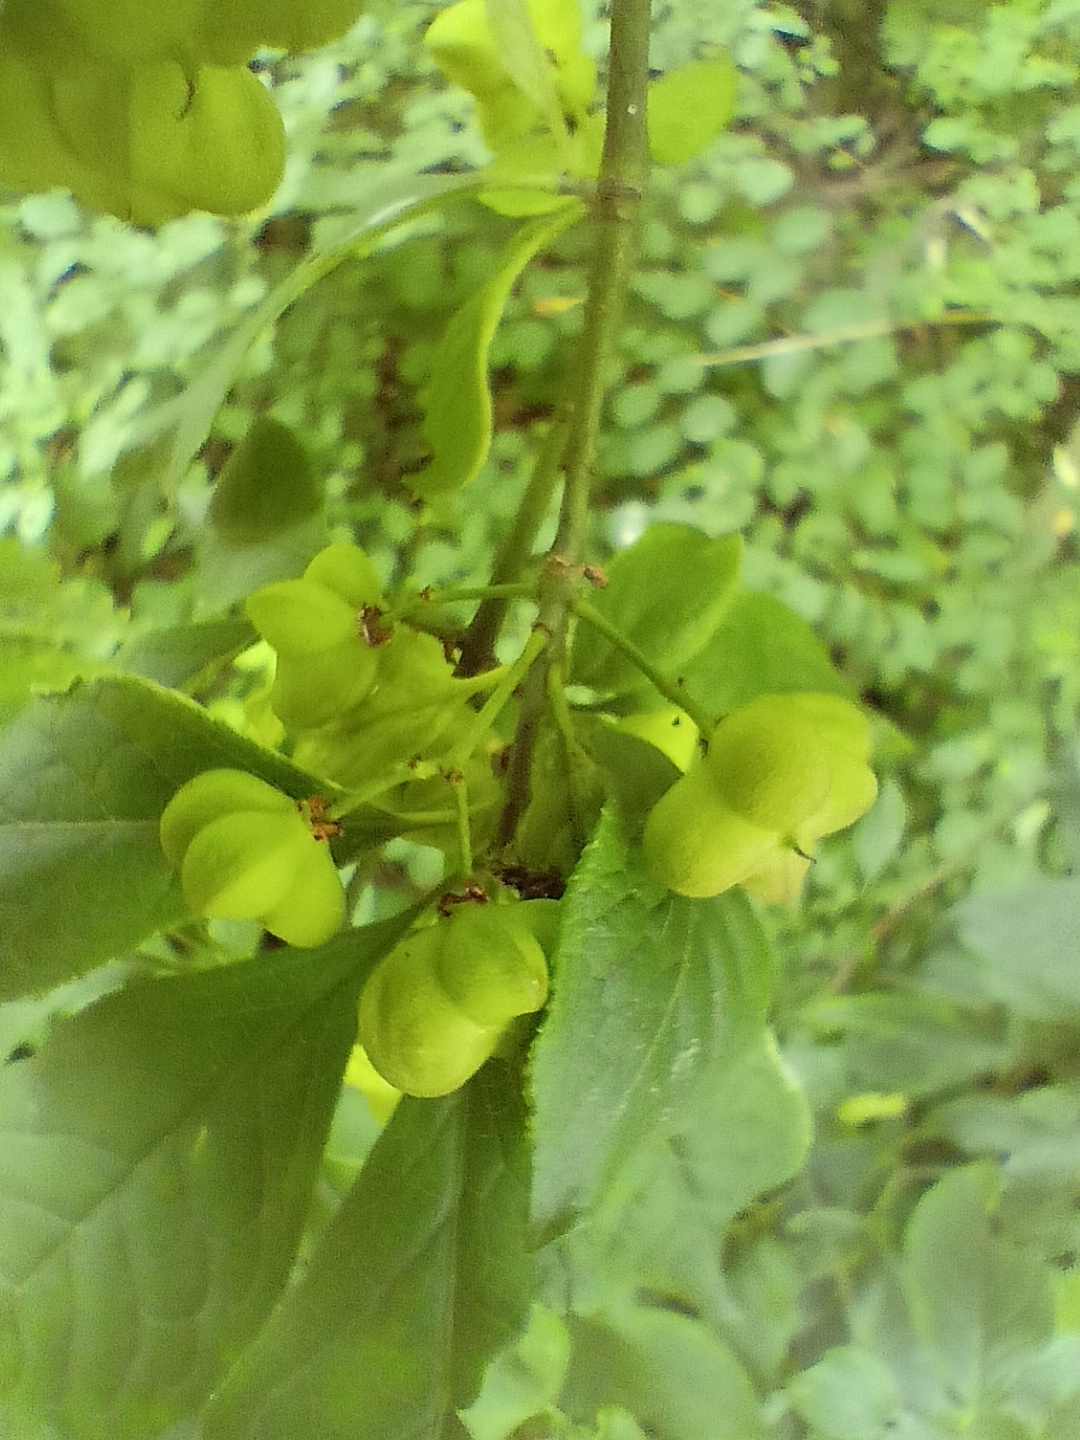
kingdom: Plantae
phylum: Tracheophyta
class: Magnoliopsida
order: Celastrales
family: Celastraceae
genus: Euonymus
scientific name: Euonymus europaeus
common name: Spindle
